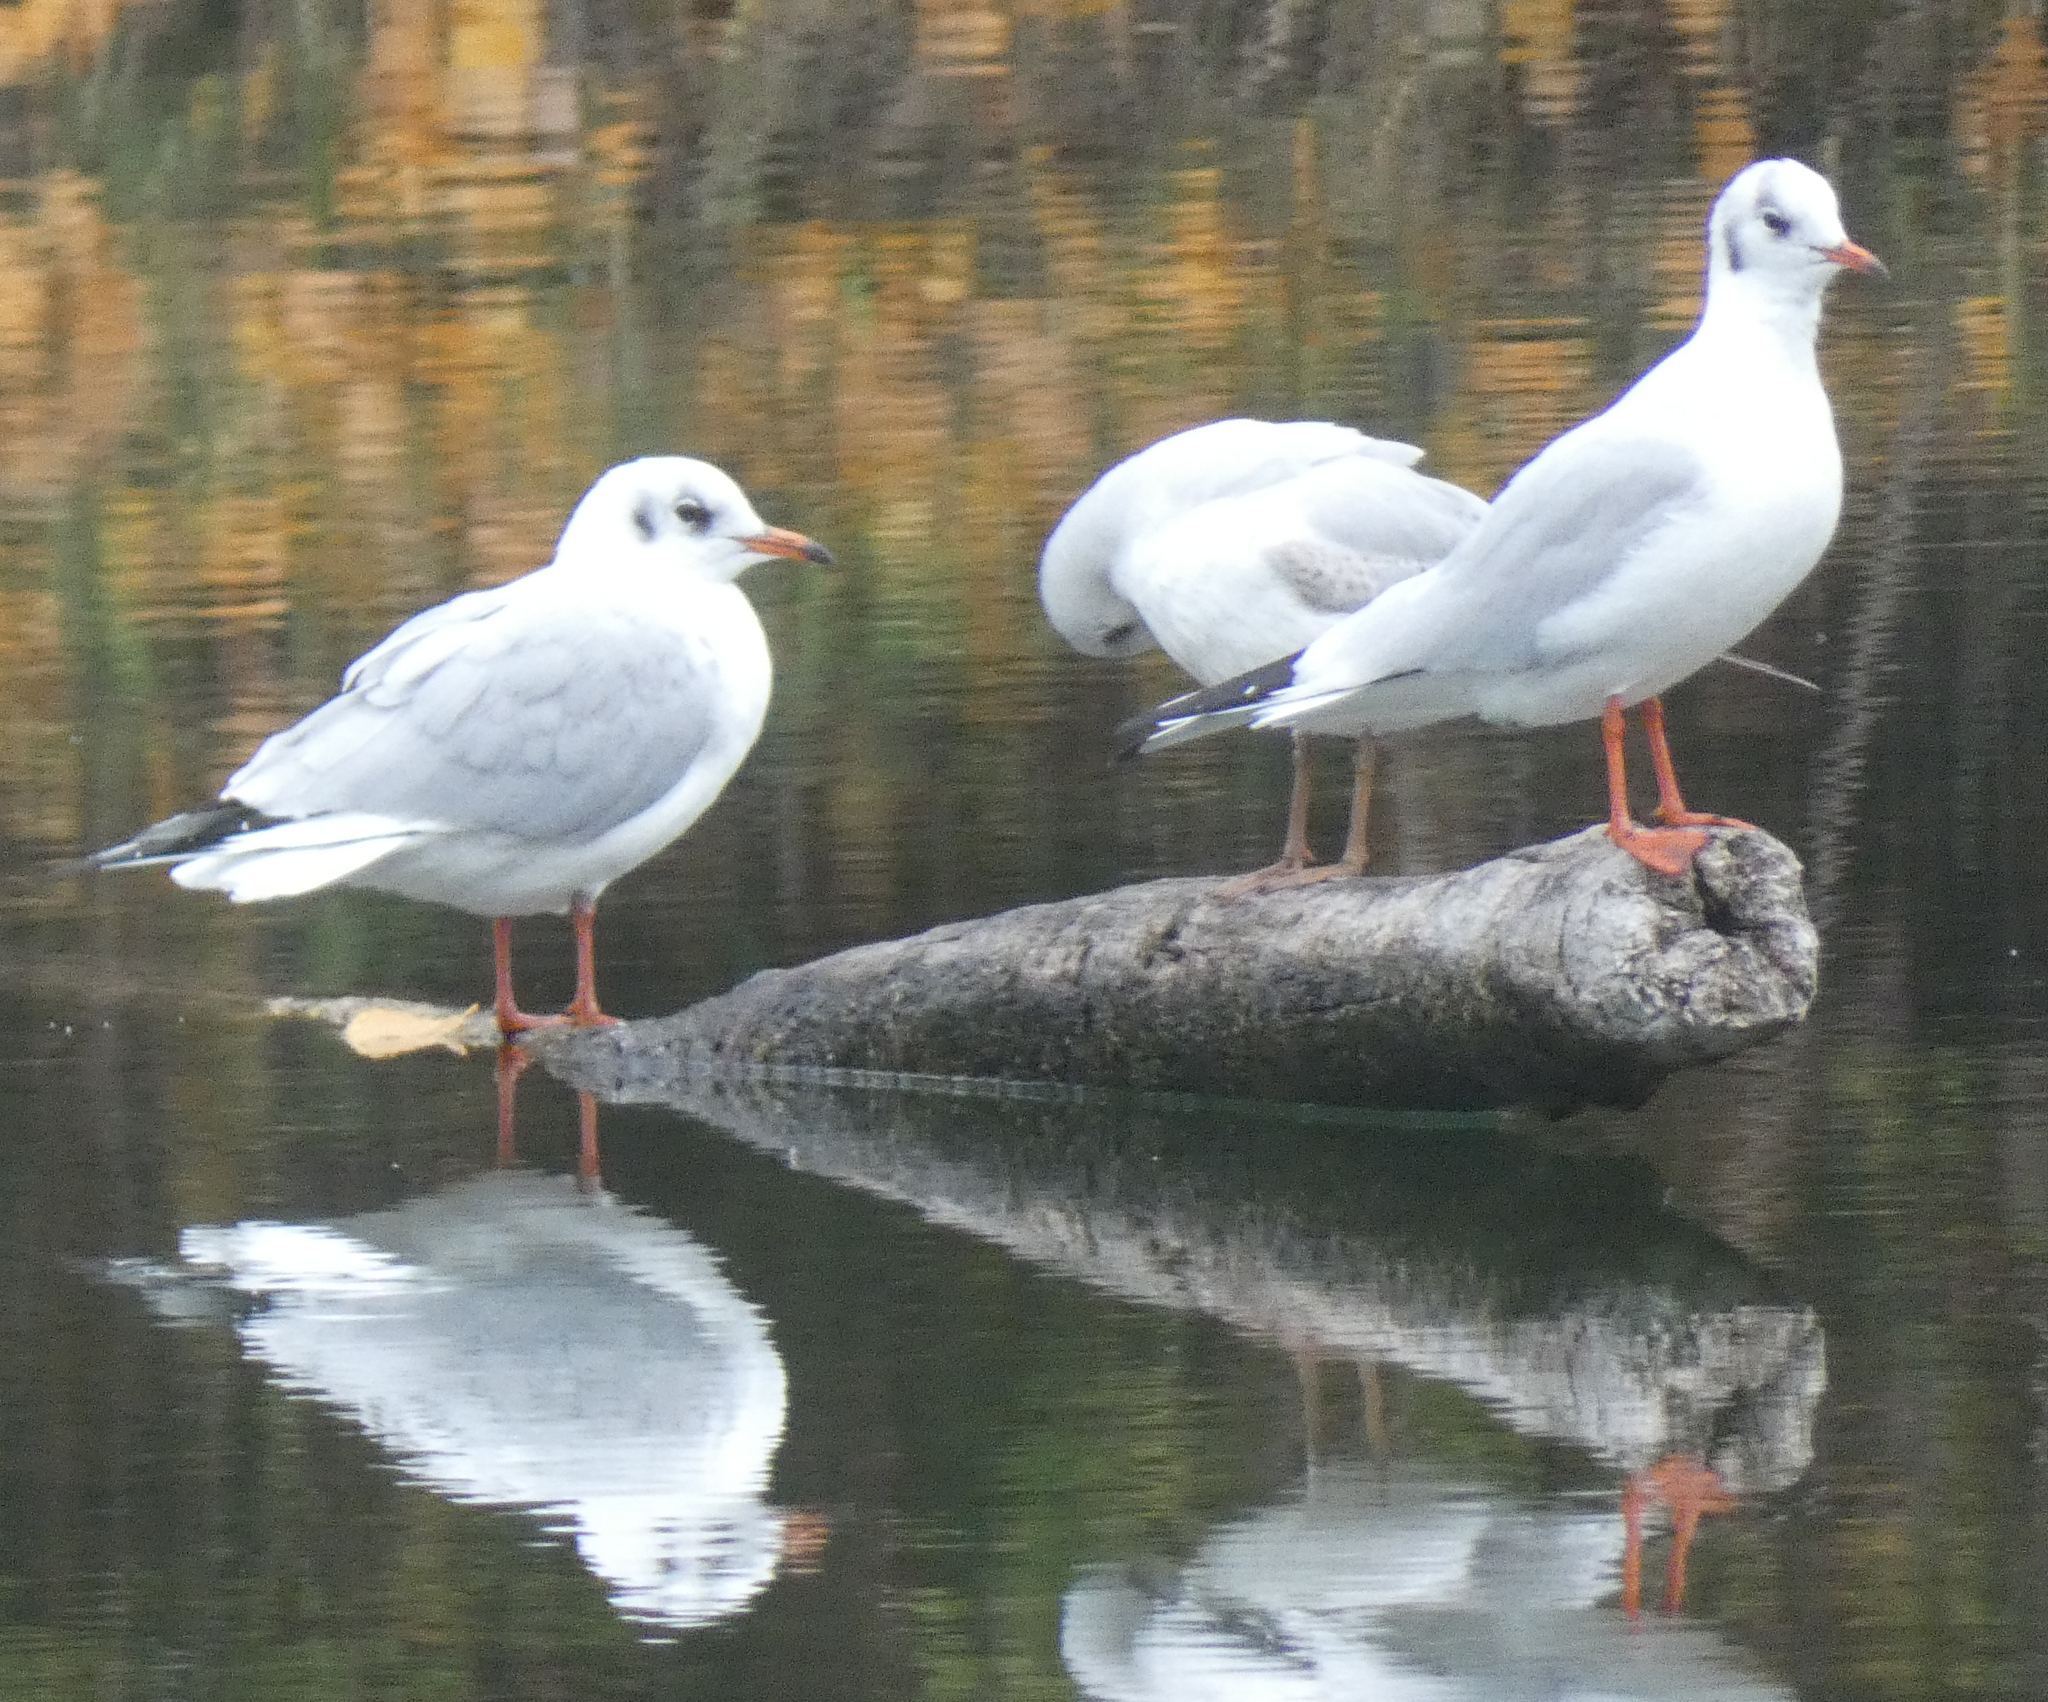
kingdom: Animalia
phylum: Chordata
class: Aves
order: Charadriiformes
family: Laridae
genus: Chroicocephalus
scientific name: Chroicocephalus ridibundus
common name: Black-headed gull
